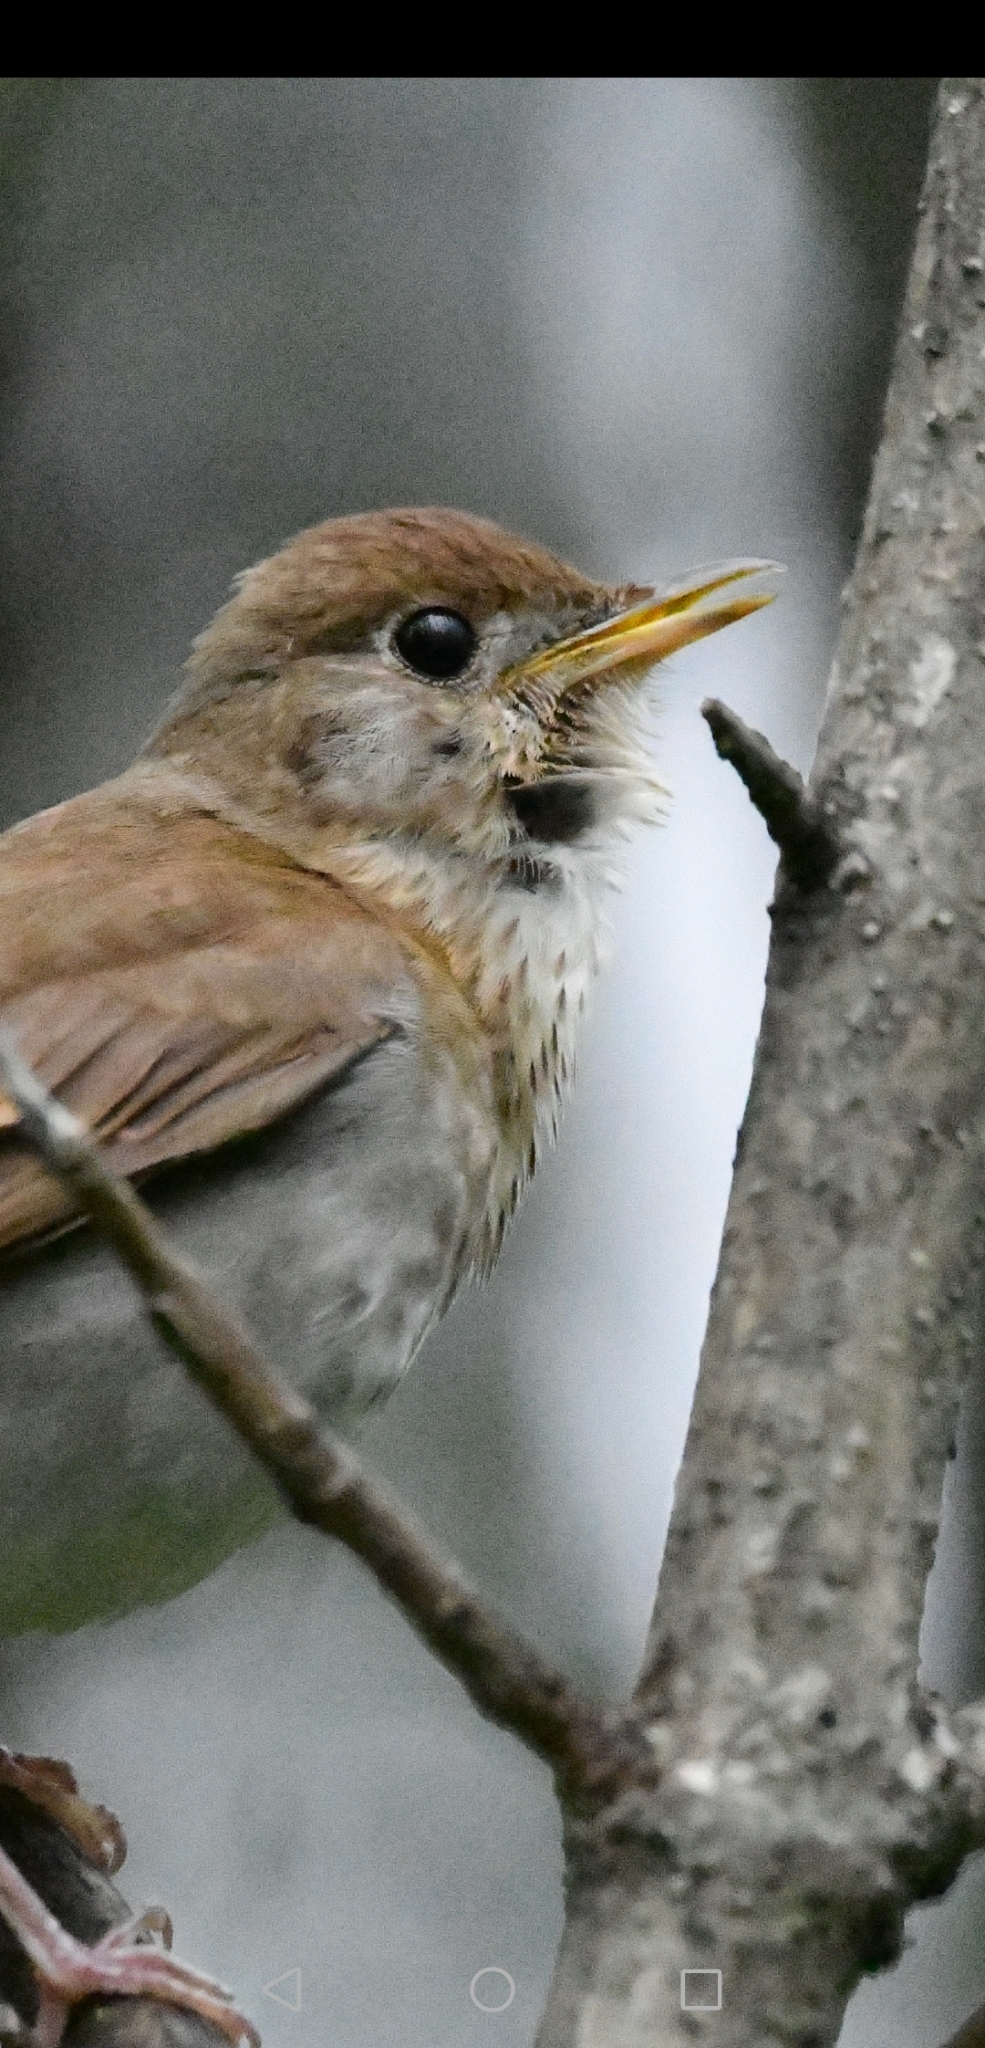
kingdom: Animalia
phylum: Chordata
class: Aves
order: Passeriformes
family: Turdidae
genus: Catharus
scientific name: Catharus fuscescens
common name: Veery
